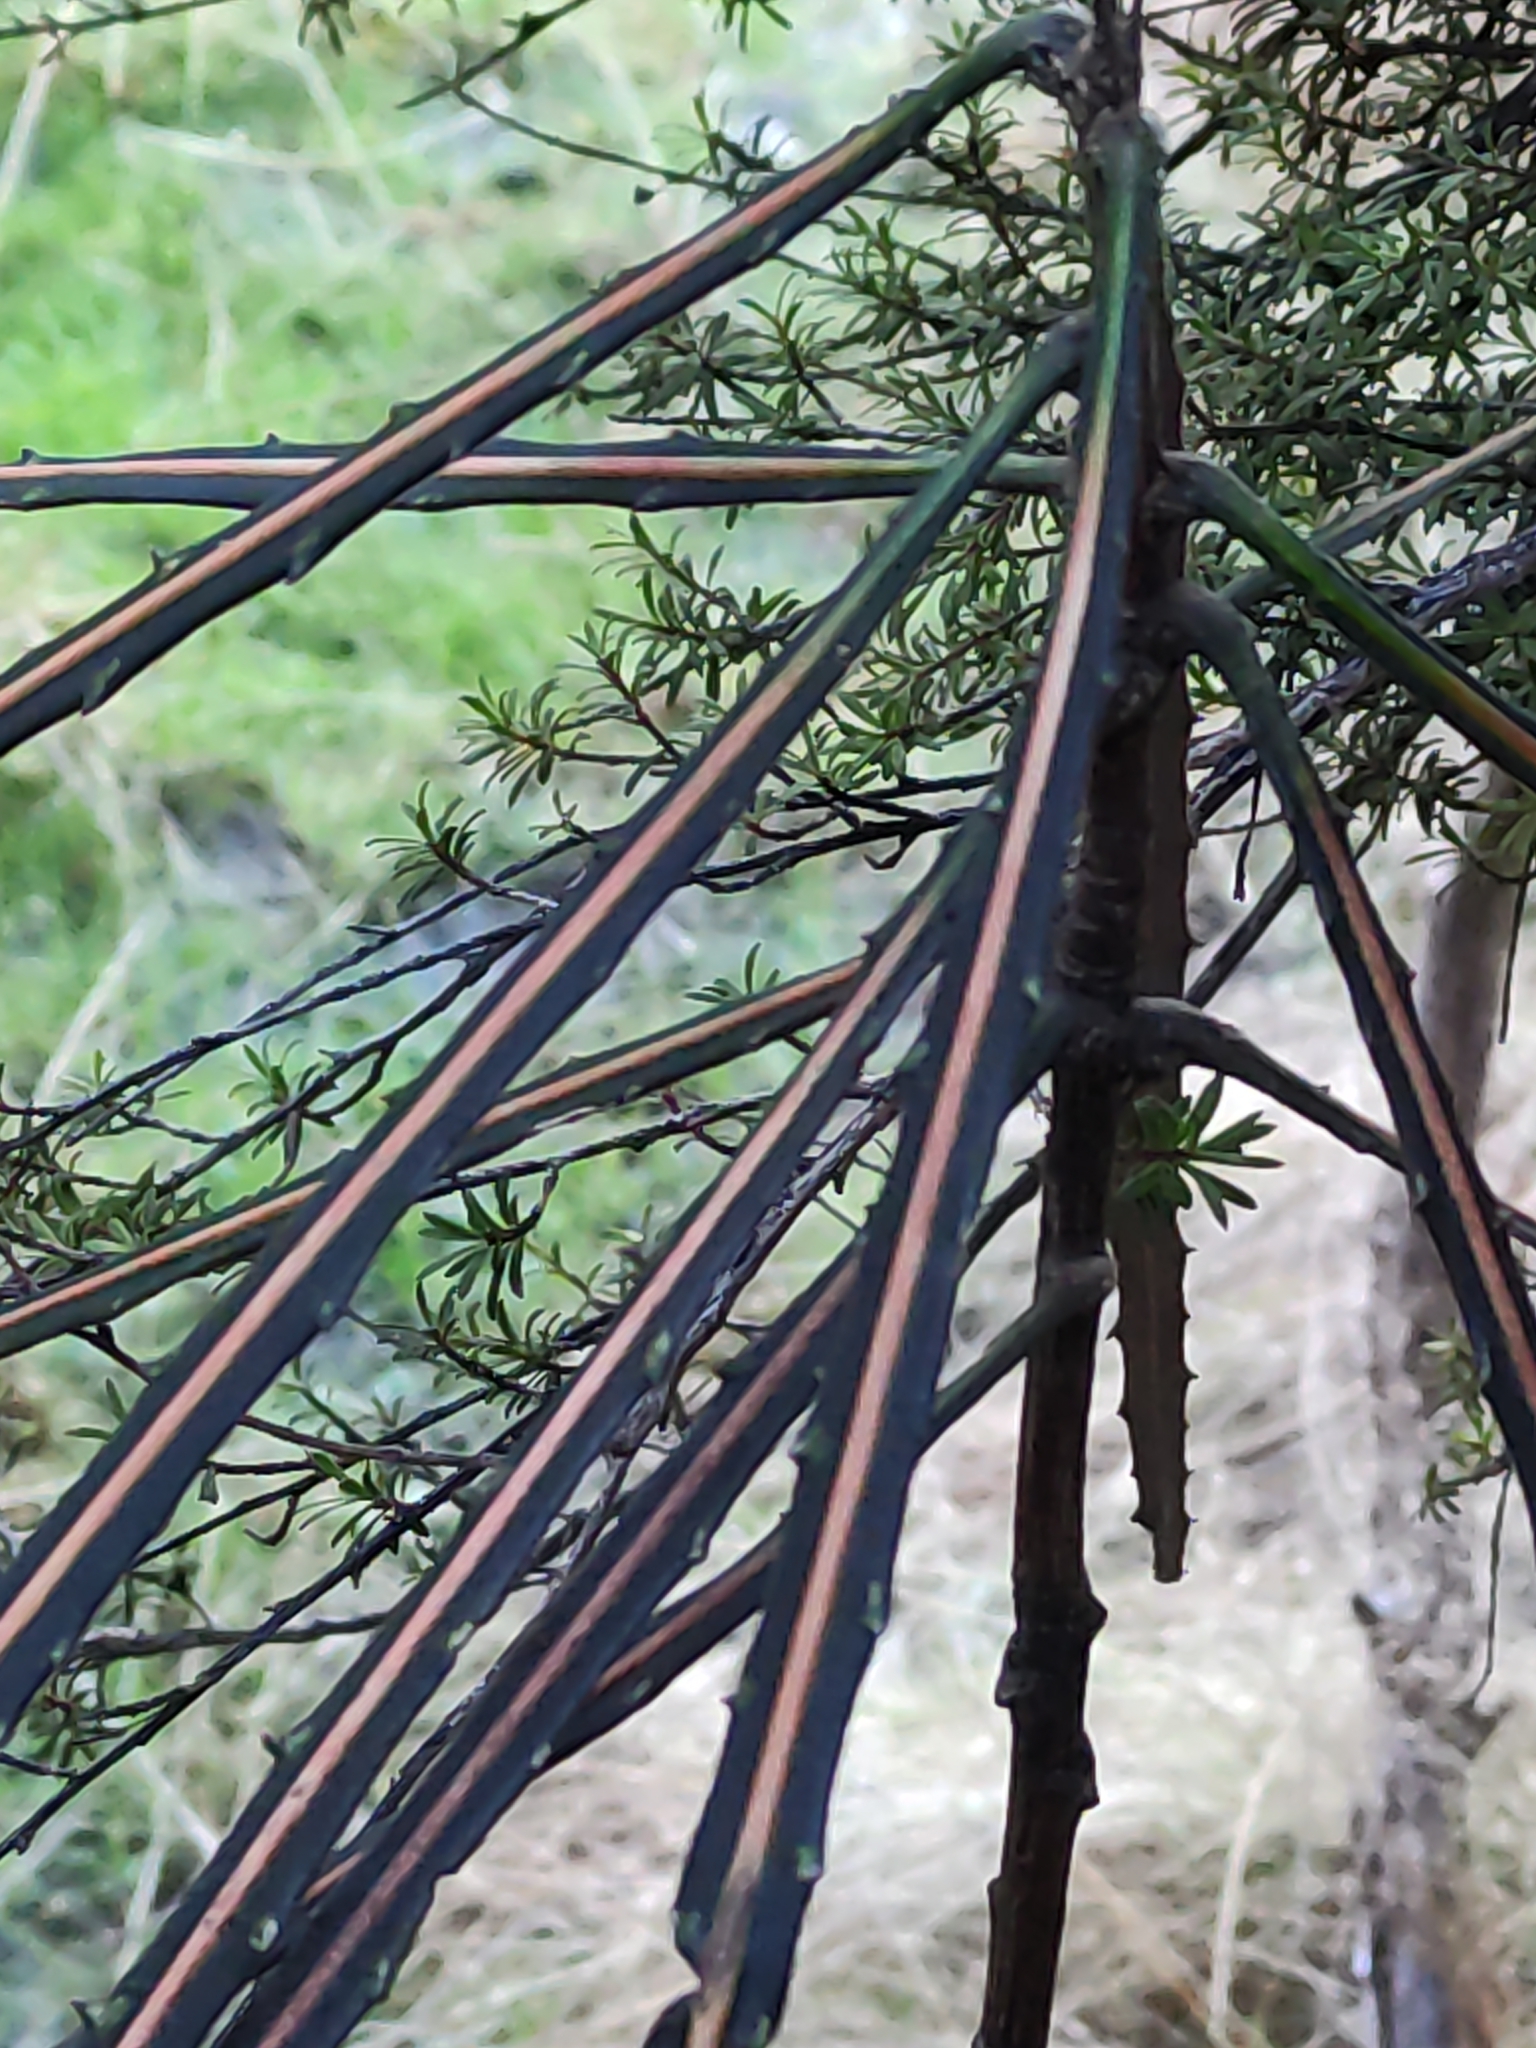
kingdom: Plantae
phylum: Tracheophyta
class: Magnoliopsida
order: Apiales
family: Araliaceae
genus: Pseudopanax
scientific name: Pseudopanax crassifolius
